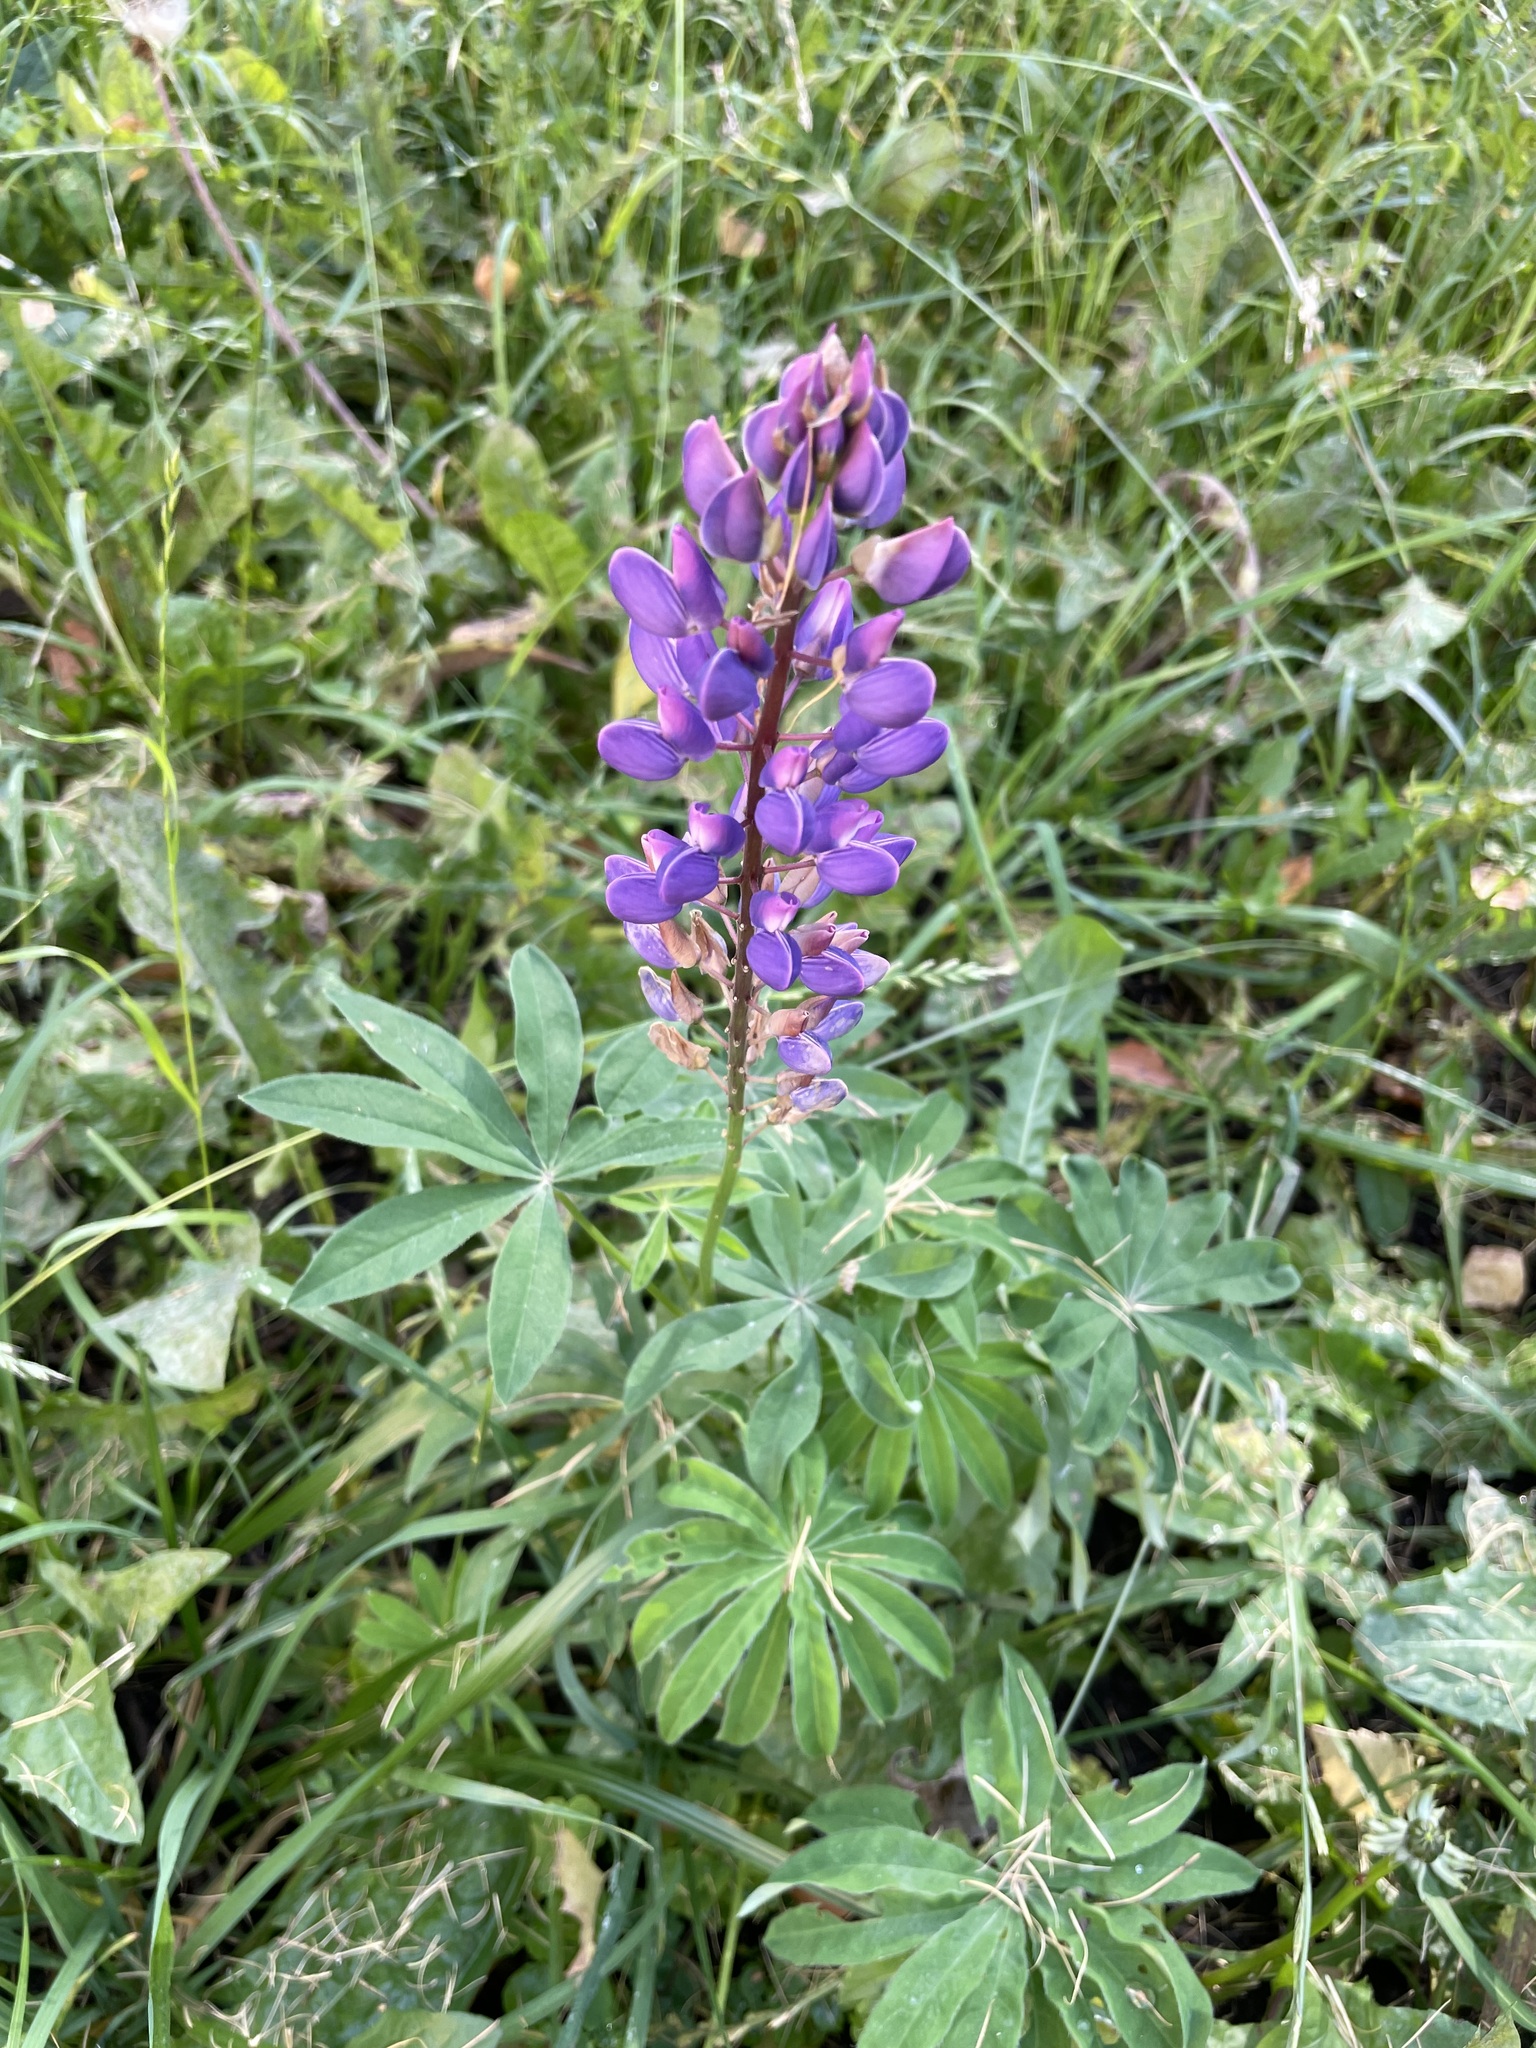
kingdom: Plantae
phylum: Tracheophyta
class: Magnoliopsida
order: Fabales
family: Fabaceae
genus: Lupinus
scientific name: Lupinus polyphyllus
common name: Garden lupin
